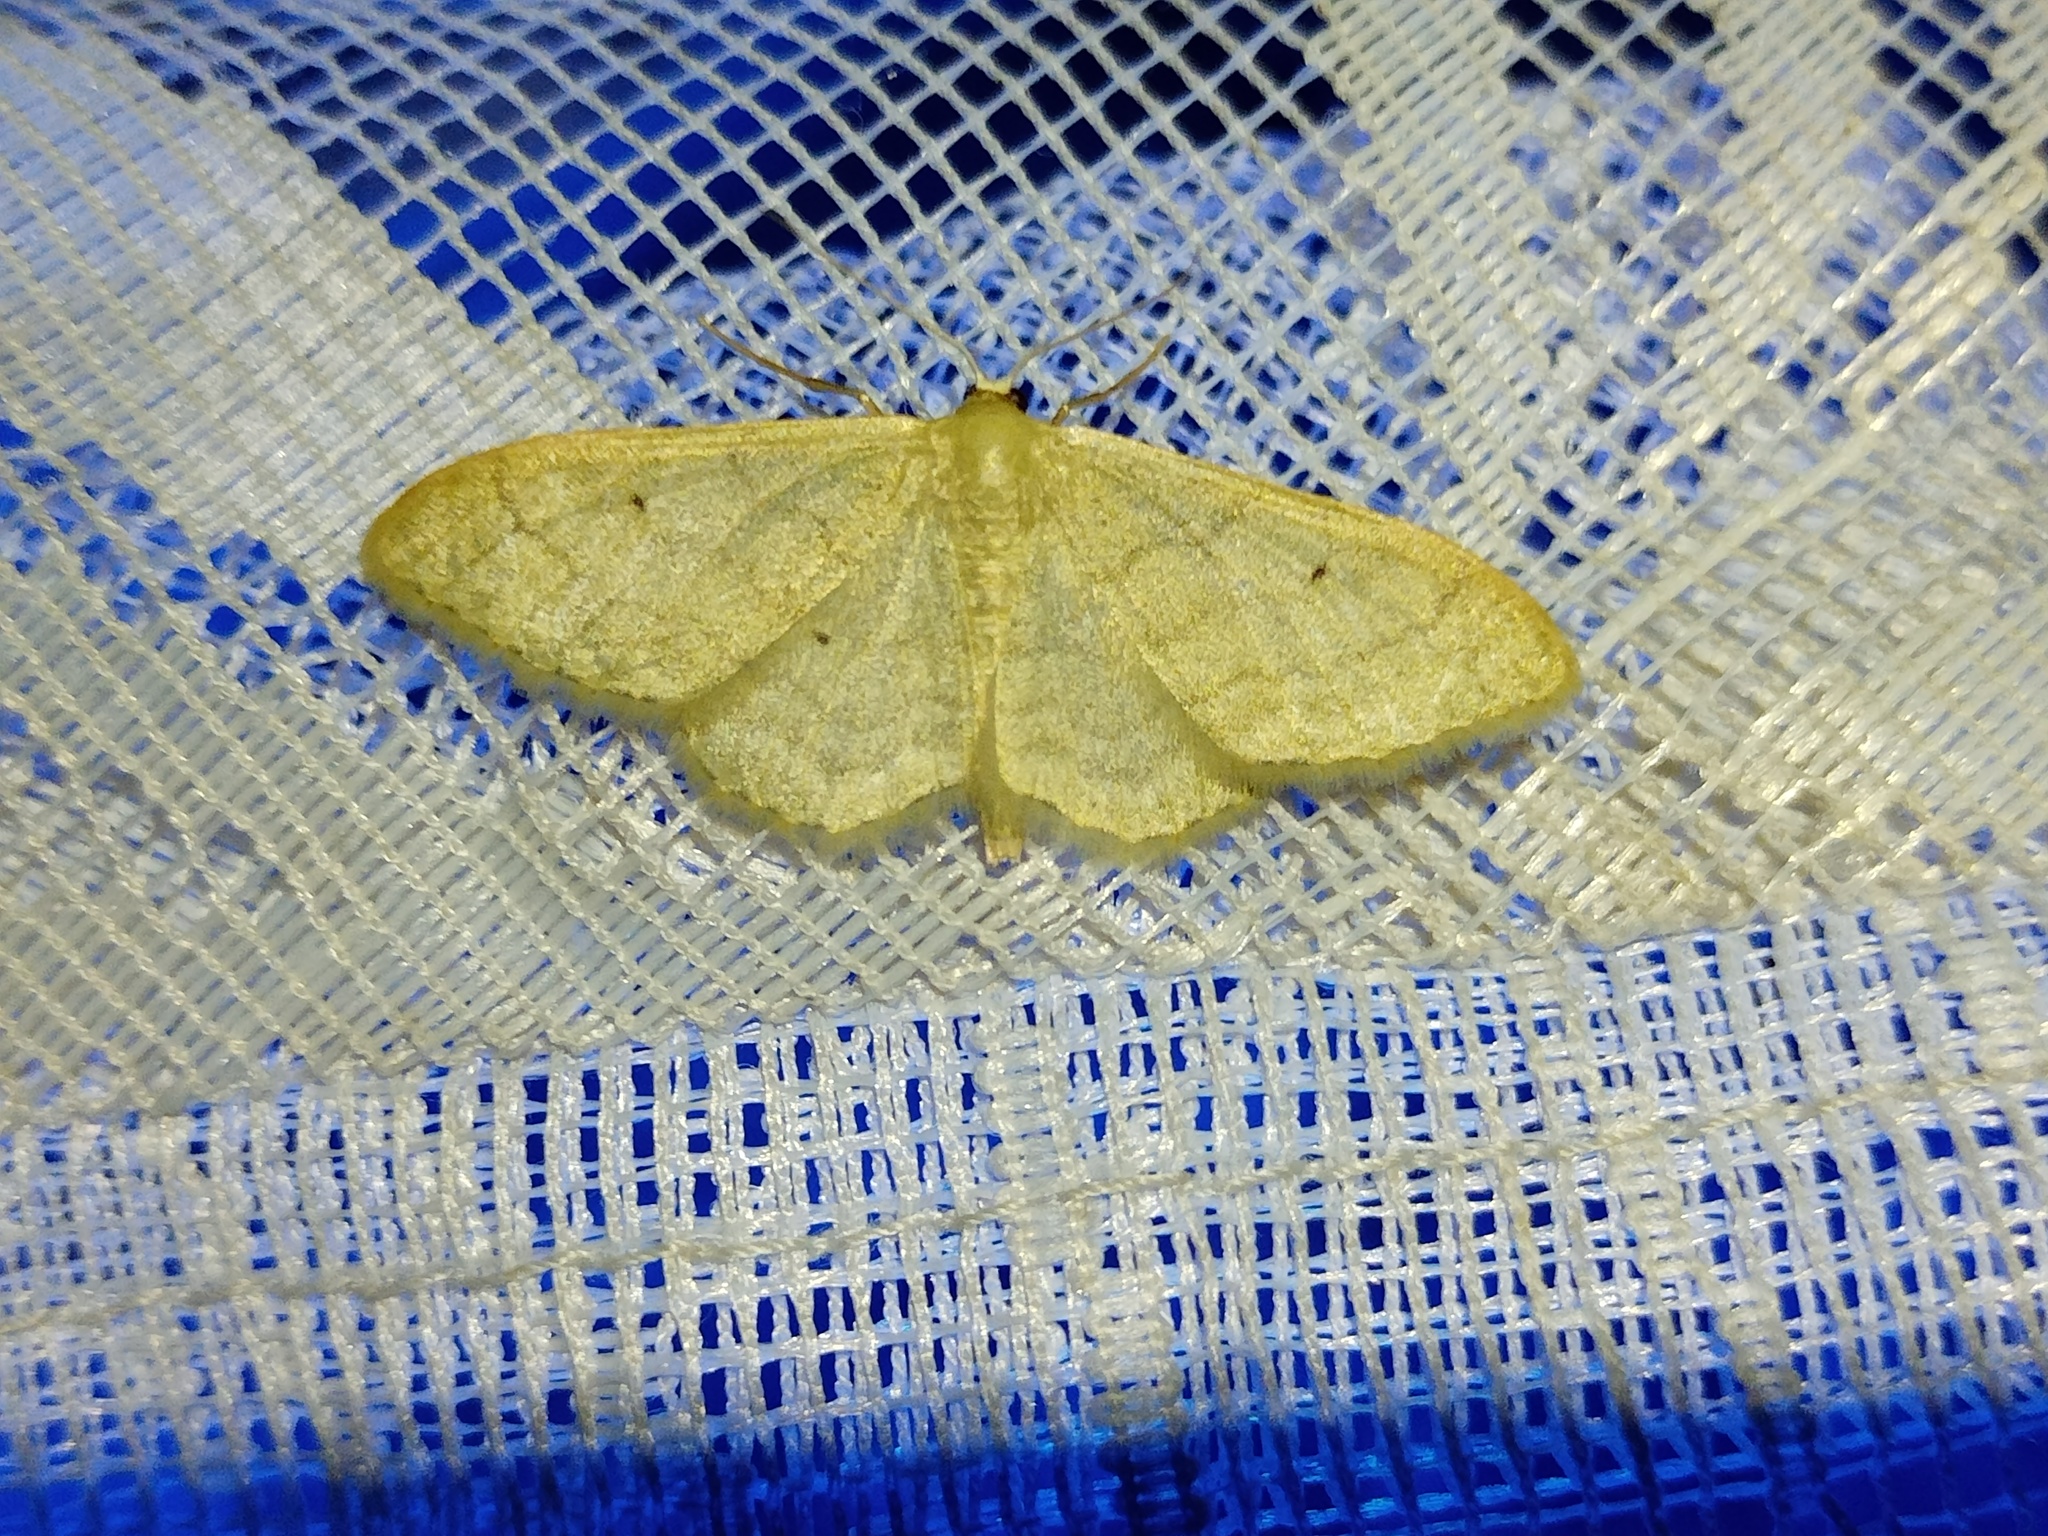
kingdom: Animalia
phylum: Arthropoda
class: Insecta
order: Lepidoptera
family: Geometridae
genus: Idaea
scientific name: Idaea straminata
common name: Plain wave
